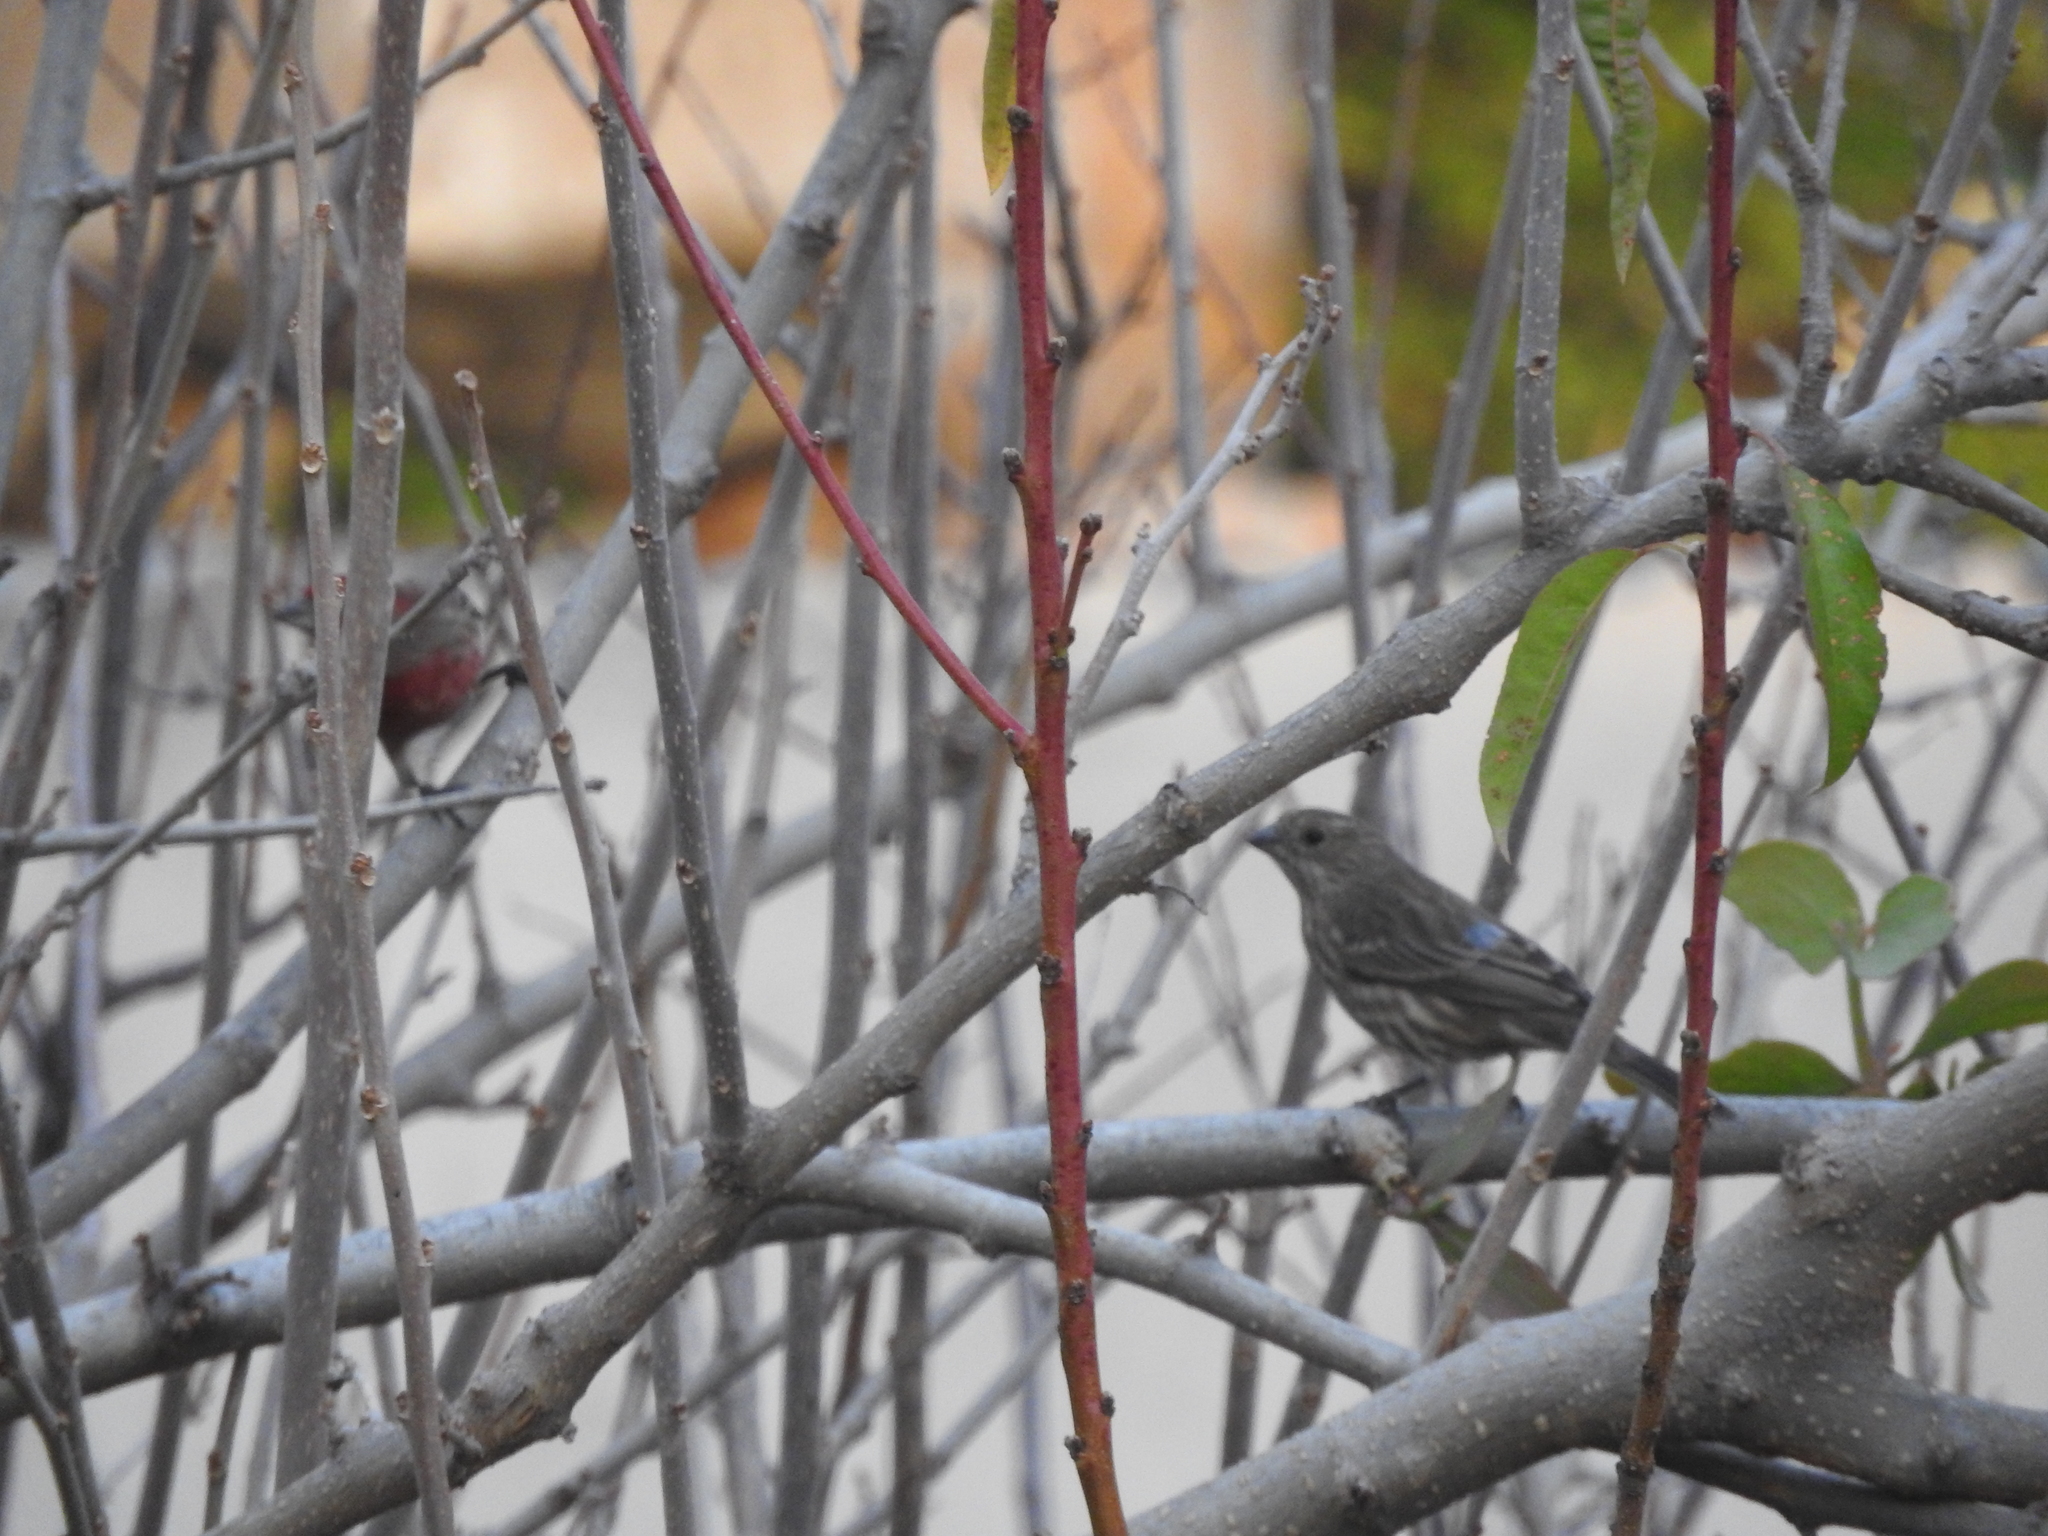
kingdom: Animalia
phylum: Chordata
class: Aves
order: Passeriformes
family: Fringillidae
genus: Haemorhous
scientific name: Haemorhous mexicanus
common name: House finch
